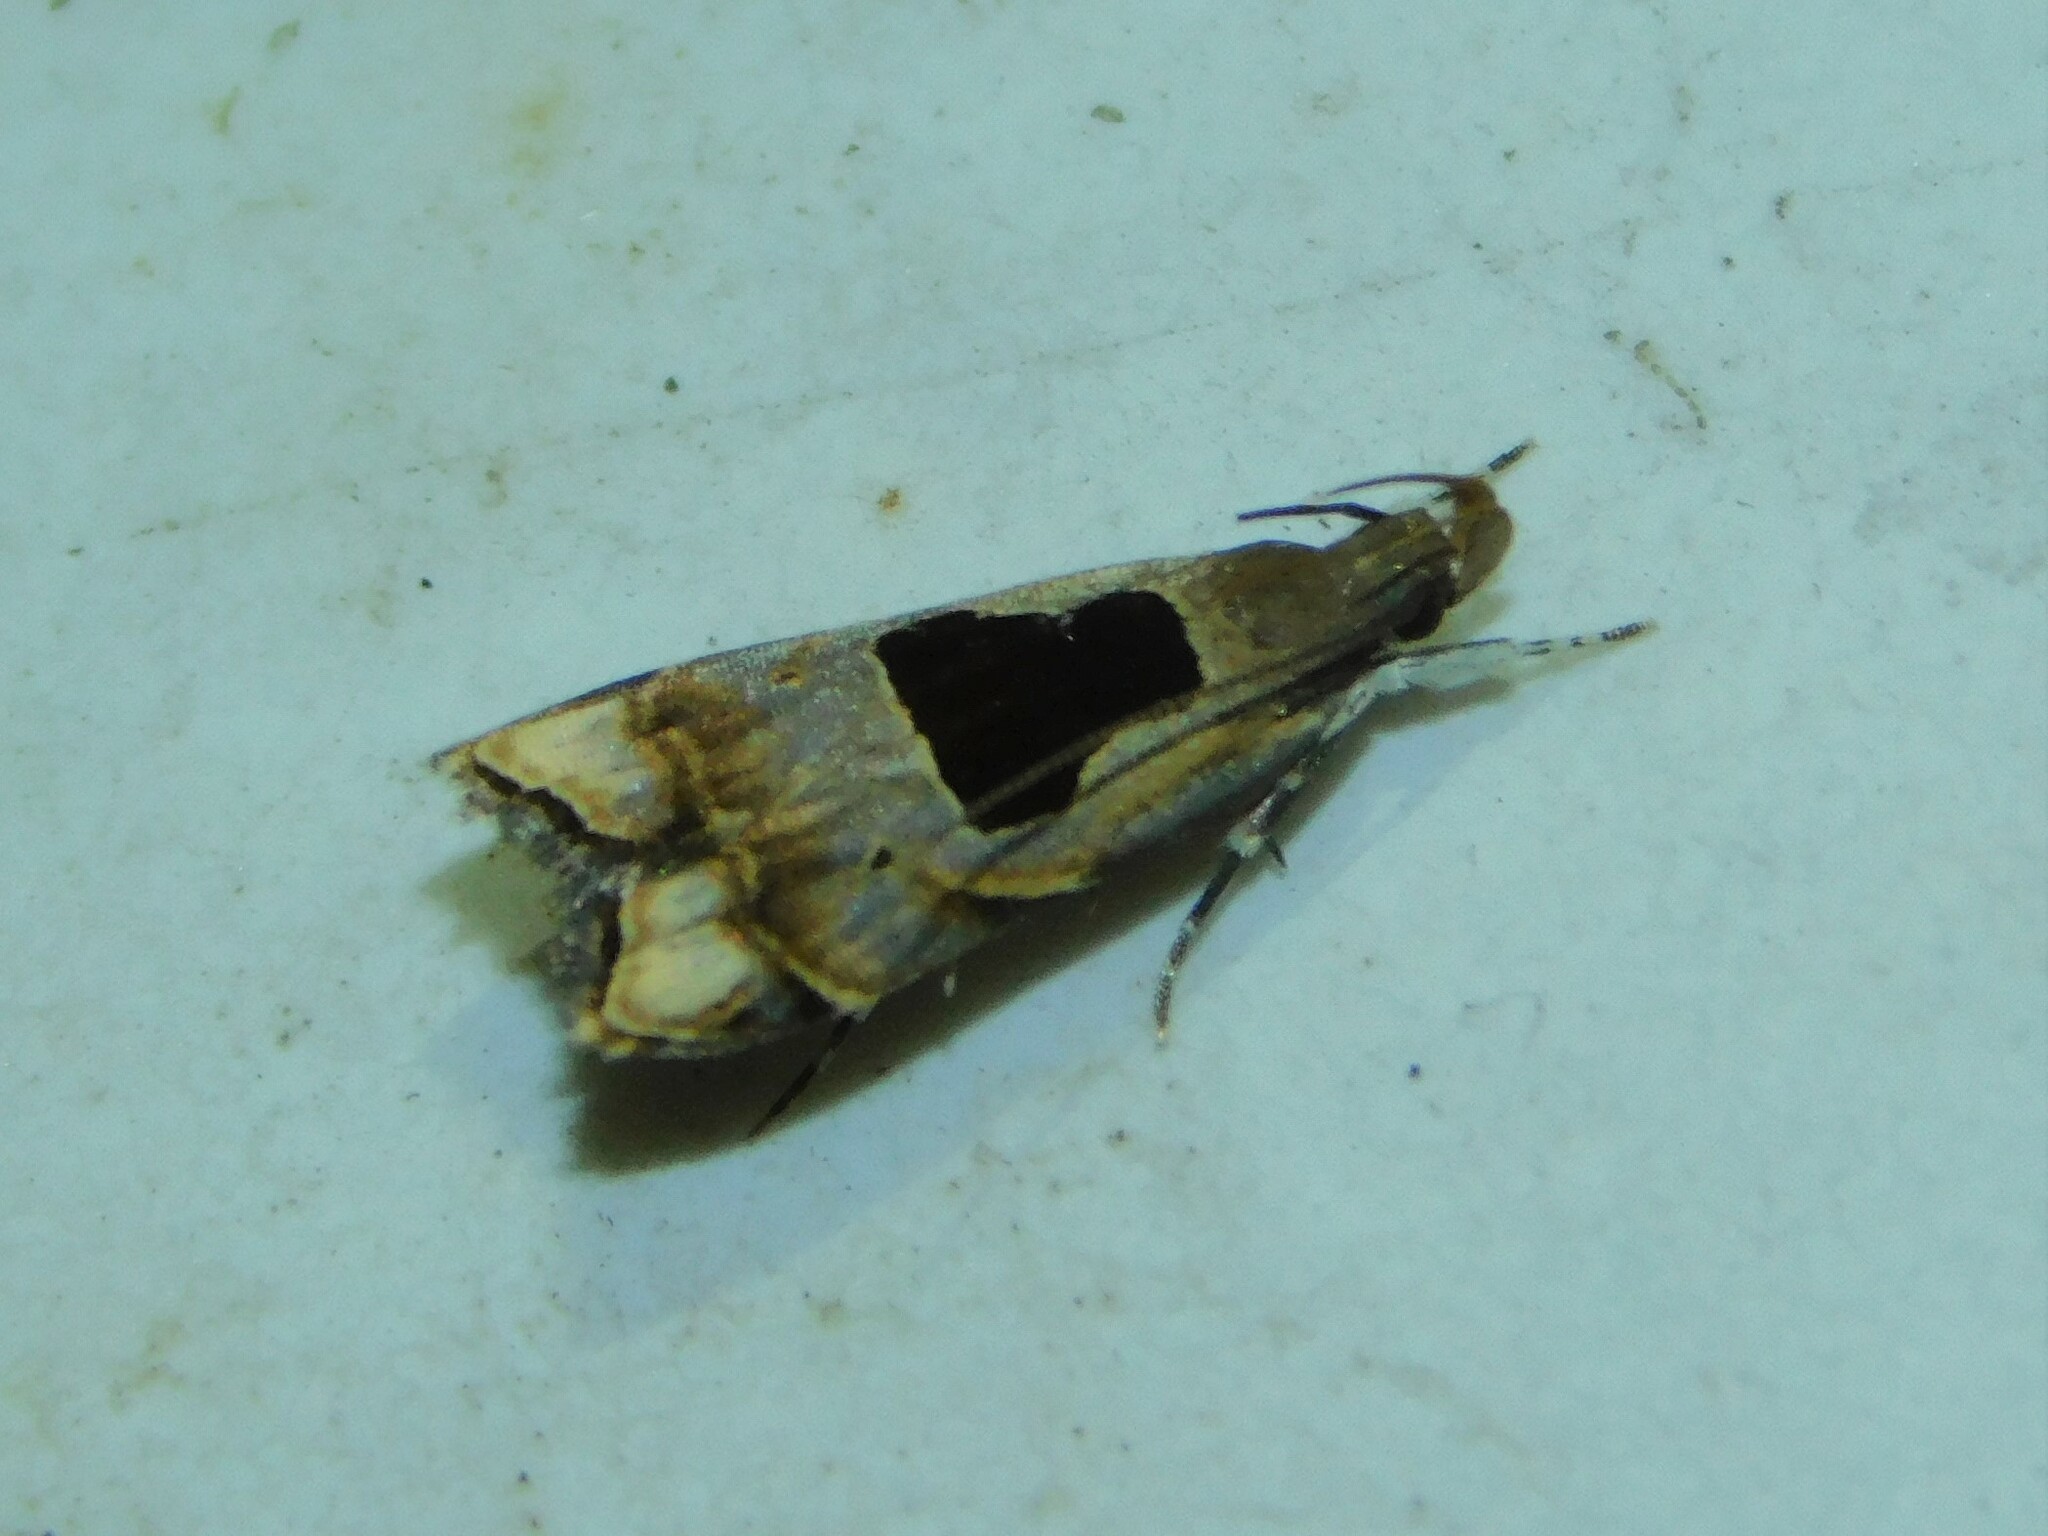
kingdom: Animalia
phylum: Arthropoda
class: Insecta
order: Lepidoptera
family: Gelechiidae
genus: Helcystogramma
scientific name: Helcystogramma septella
